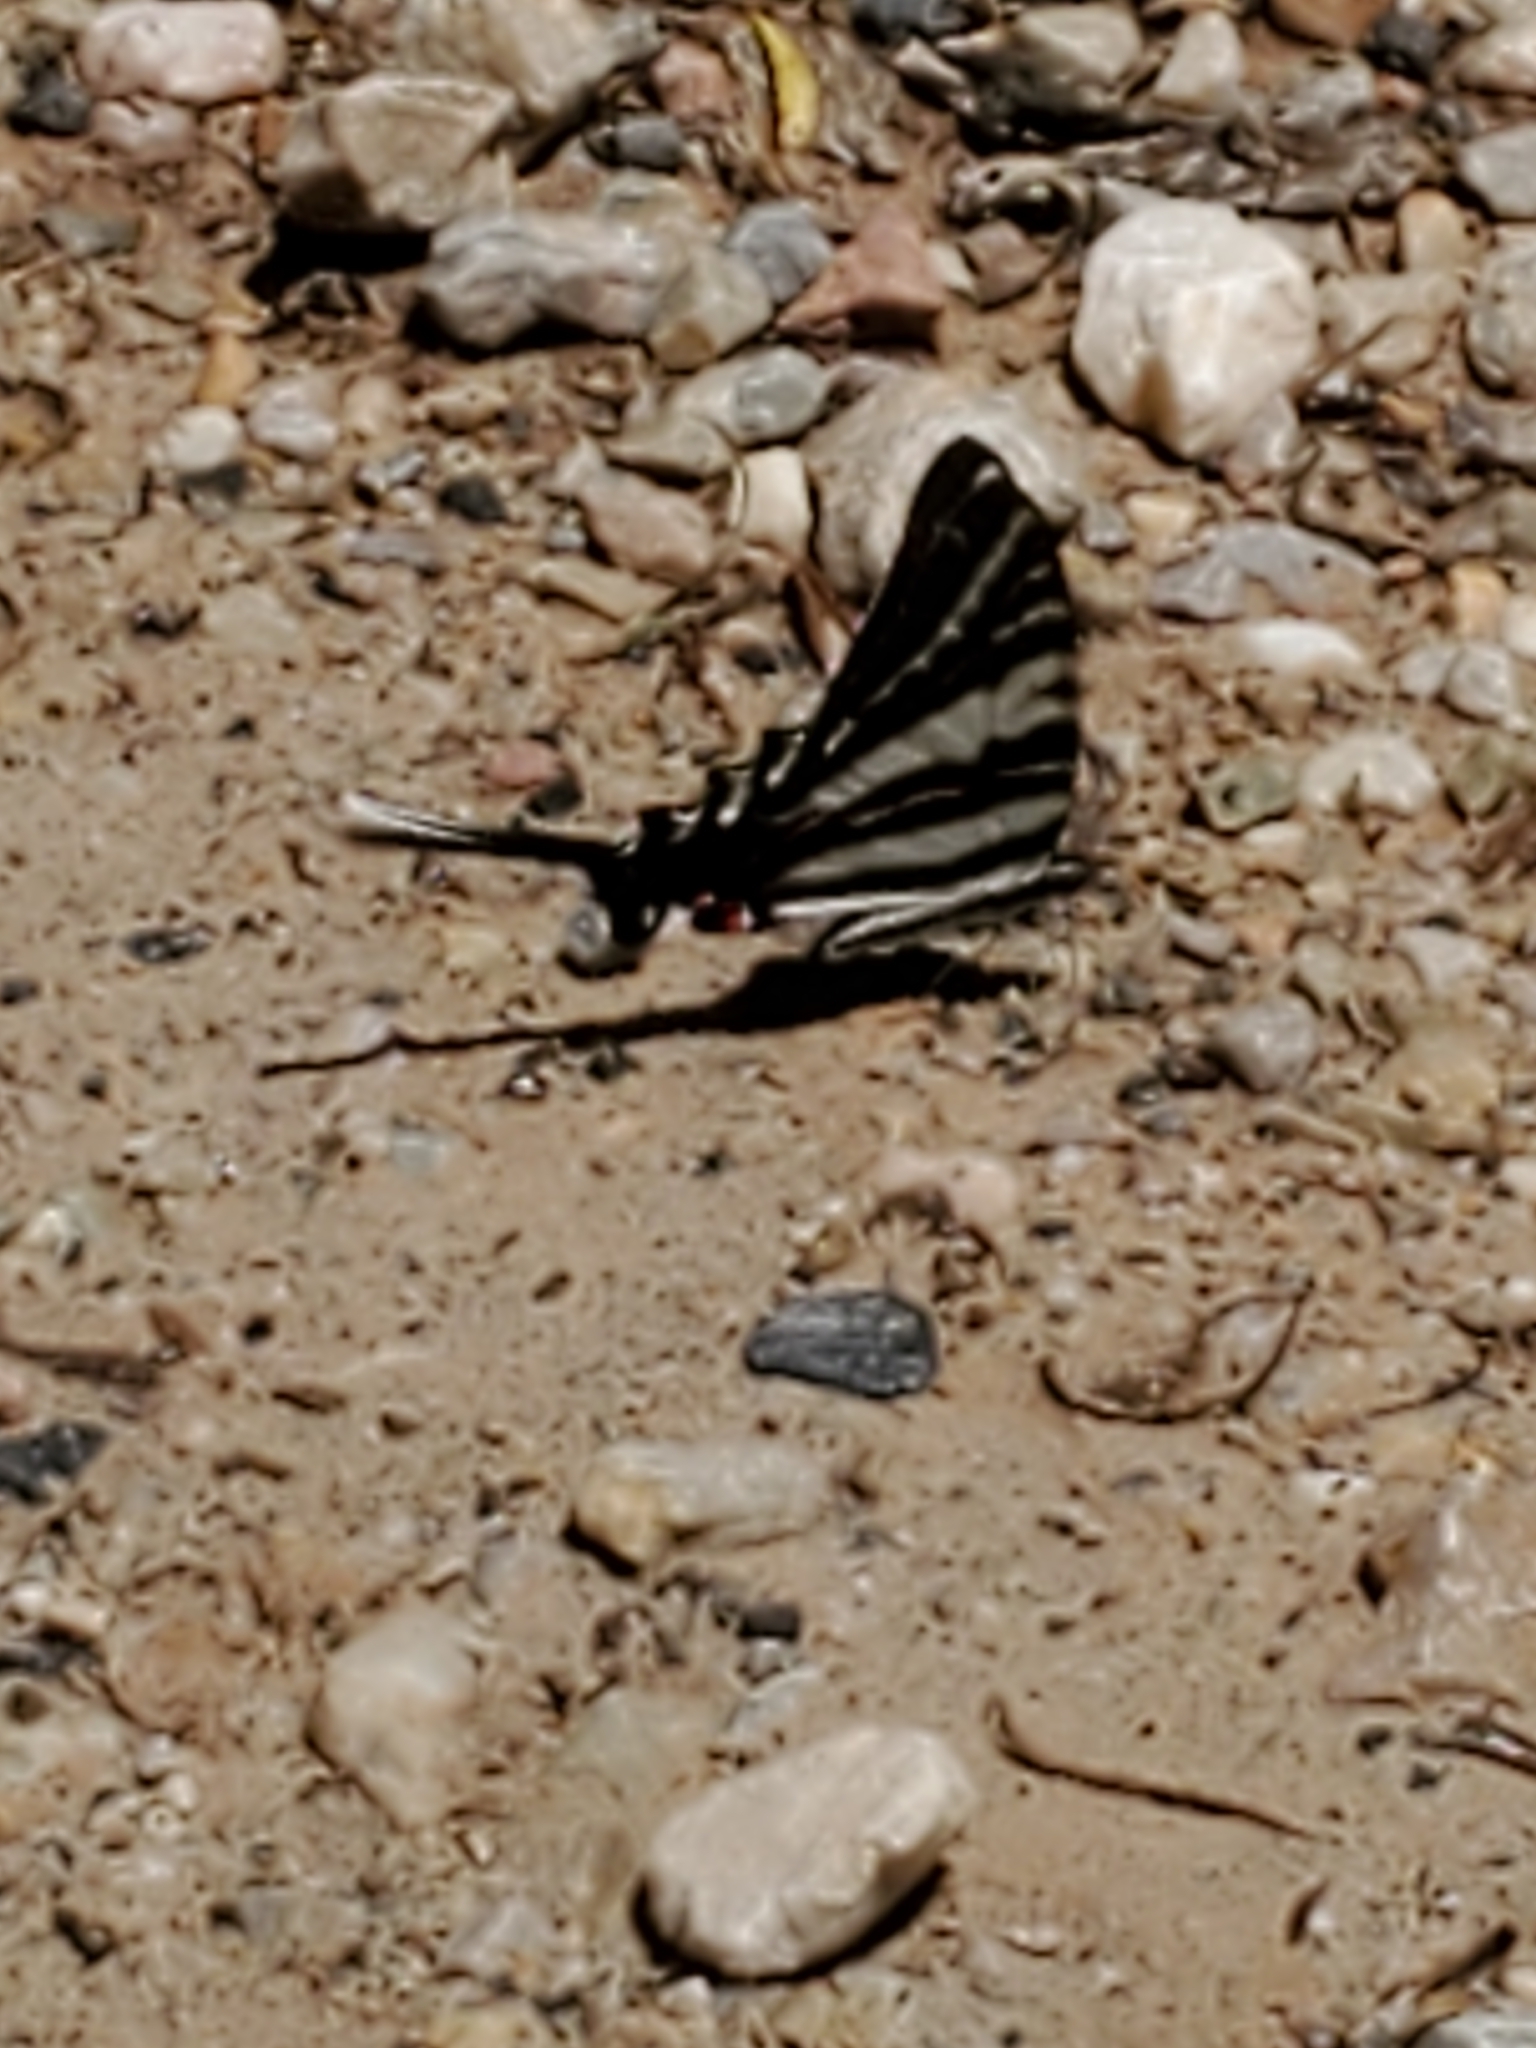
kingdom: Animalia
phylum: Arthropoda
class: Insecta
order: Lepidoptera
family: Papilionidae
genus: Protographium
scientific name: Protographium marcellus
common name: Zebra swallowtail
